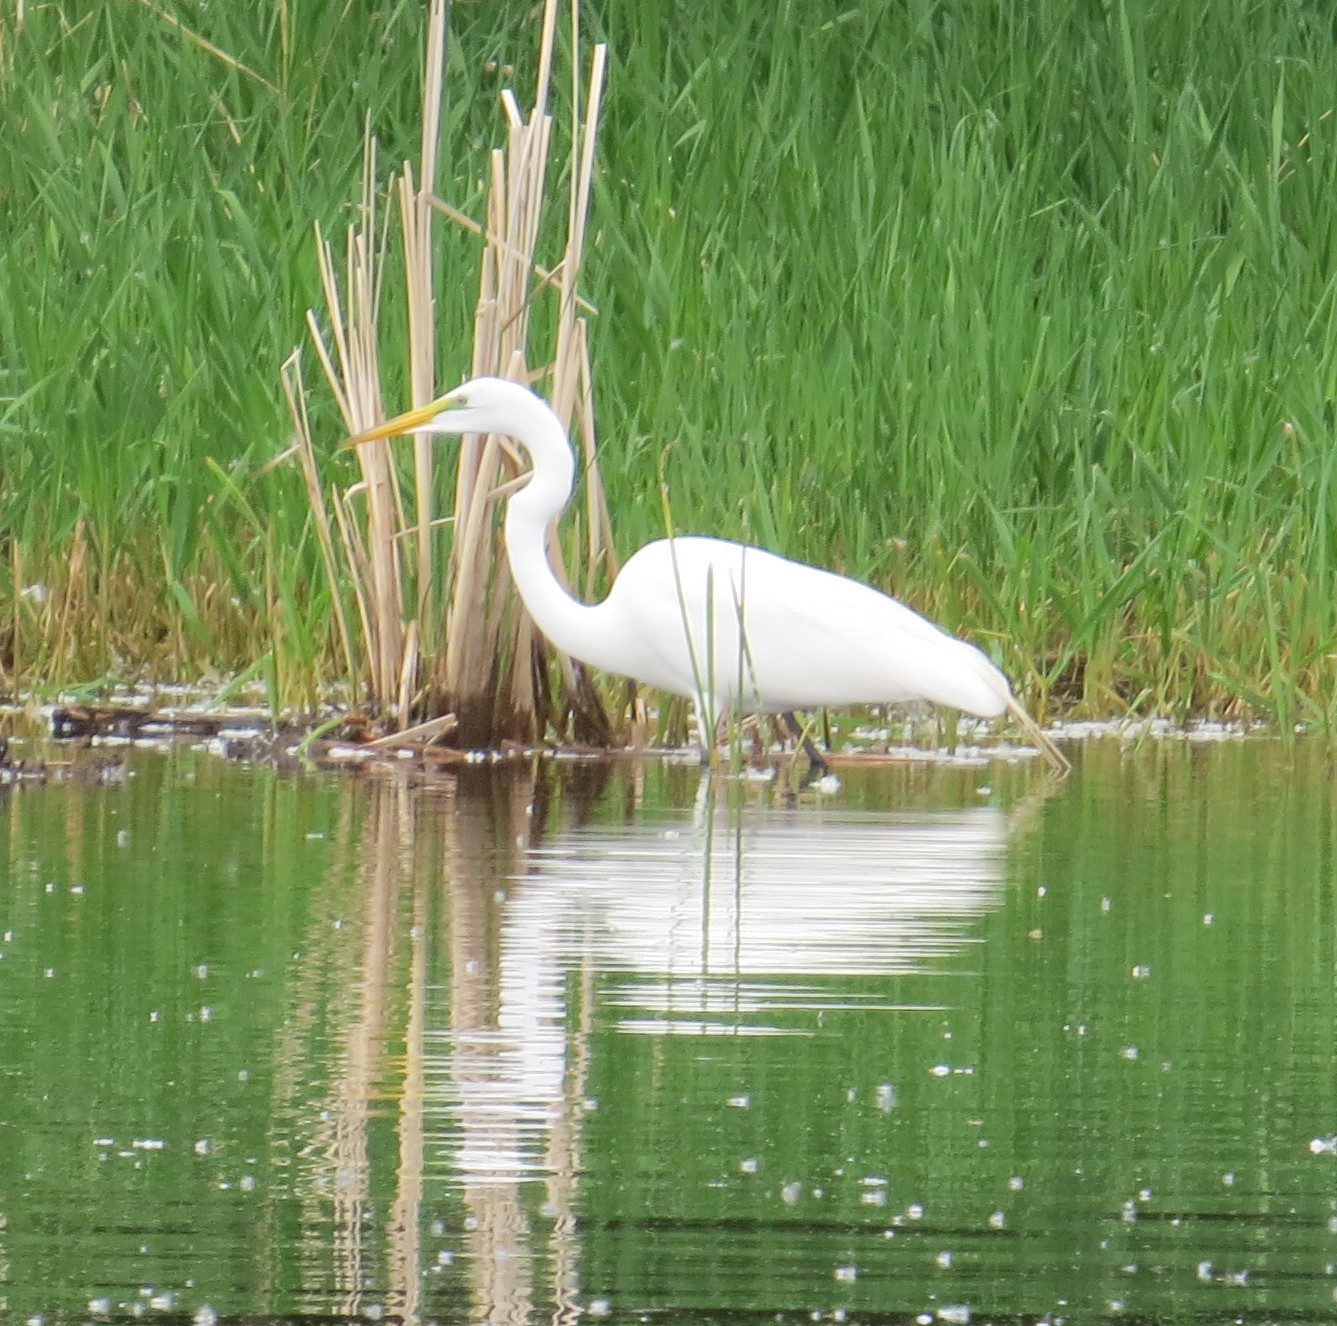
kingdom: Animalia
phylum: Chordata
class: Aves
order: Pelecaniformes
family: Ardeidae
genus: Ardea
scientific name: Ardea alba
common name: Great egret
